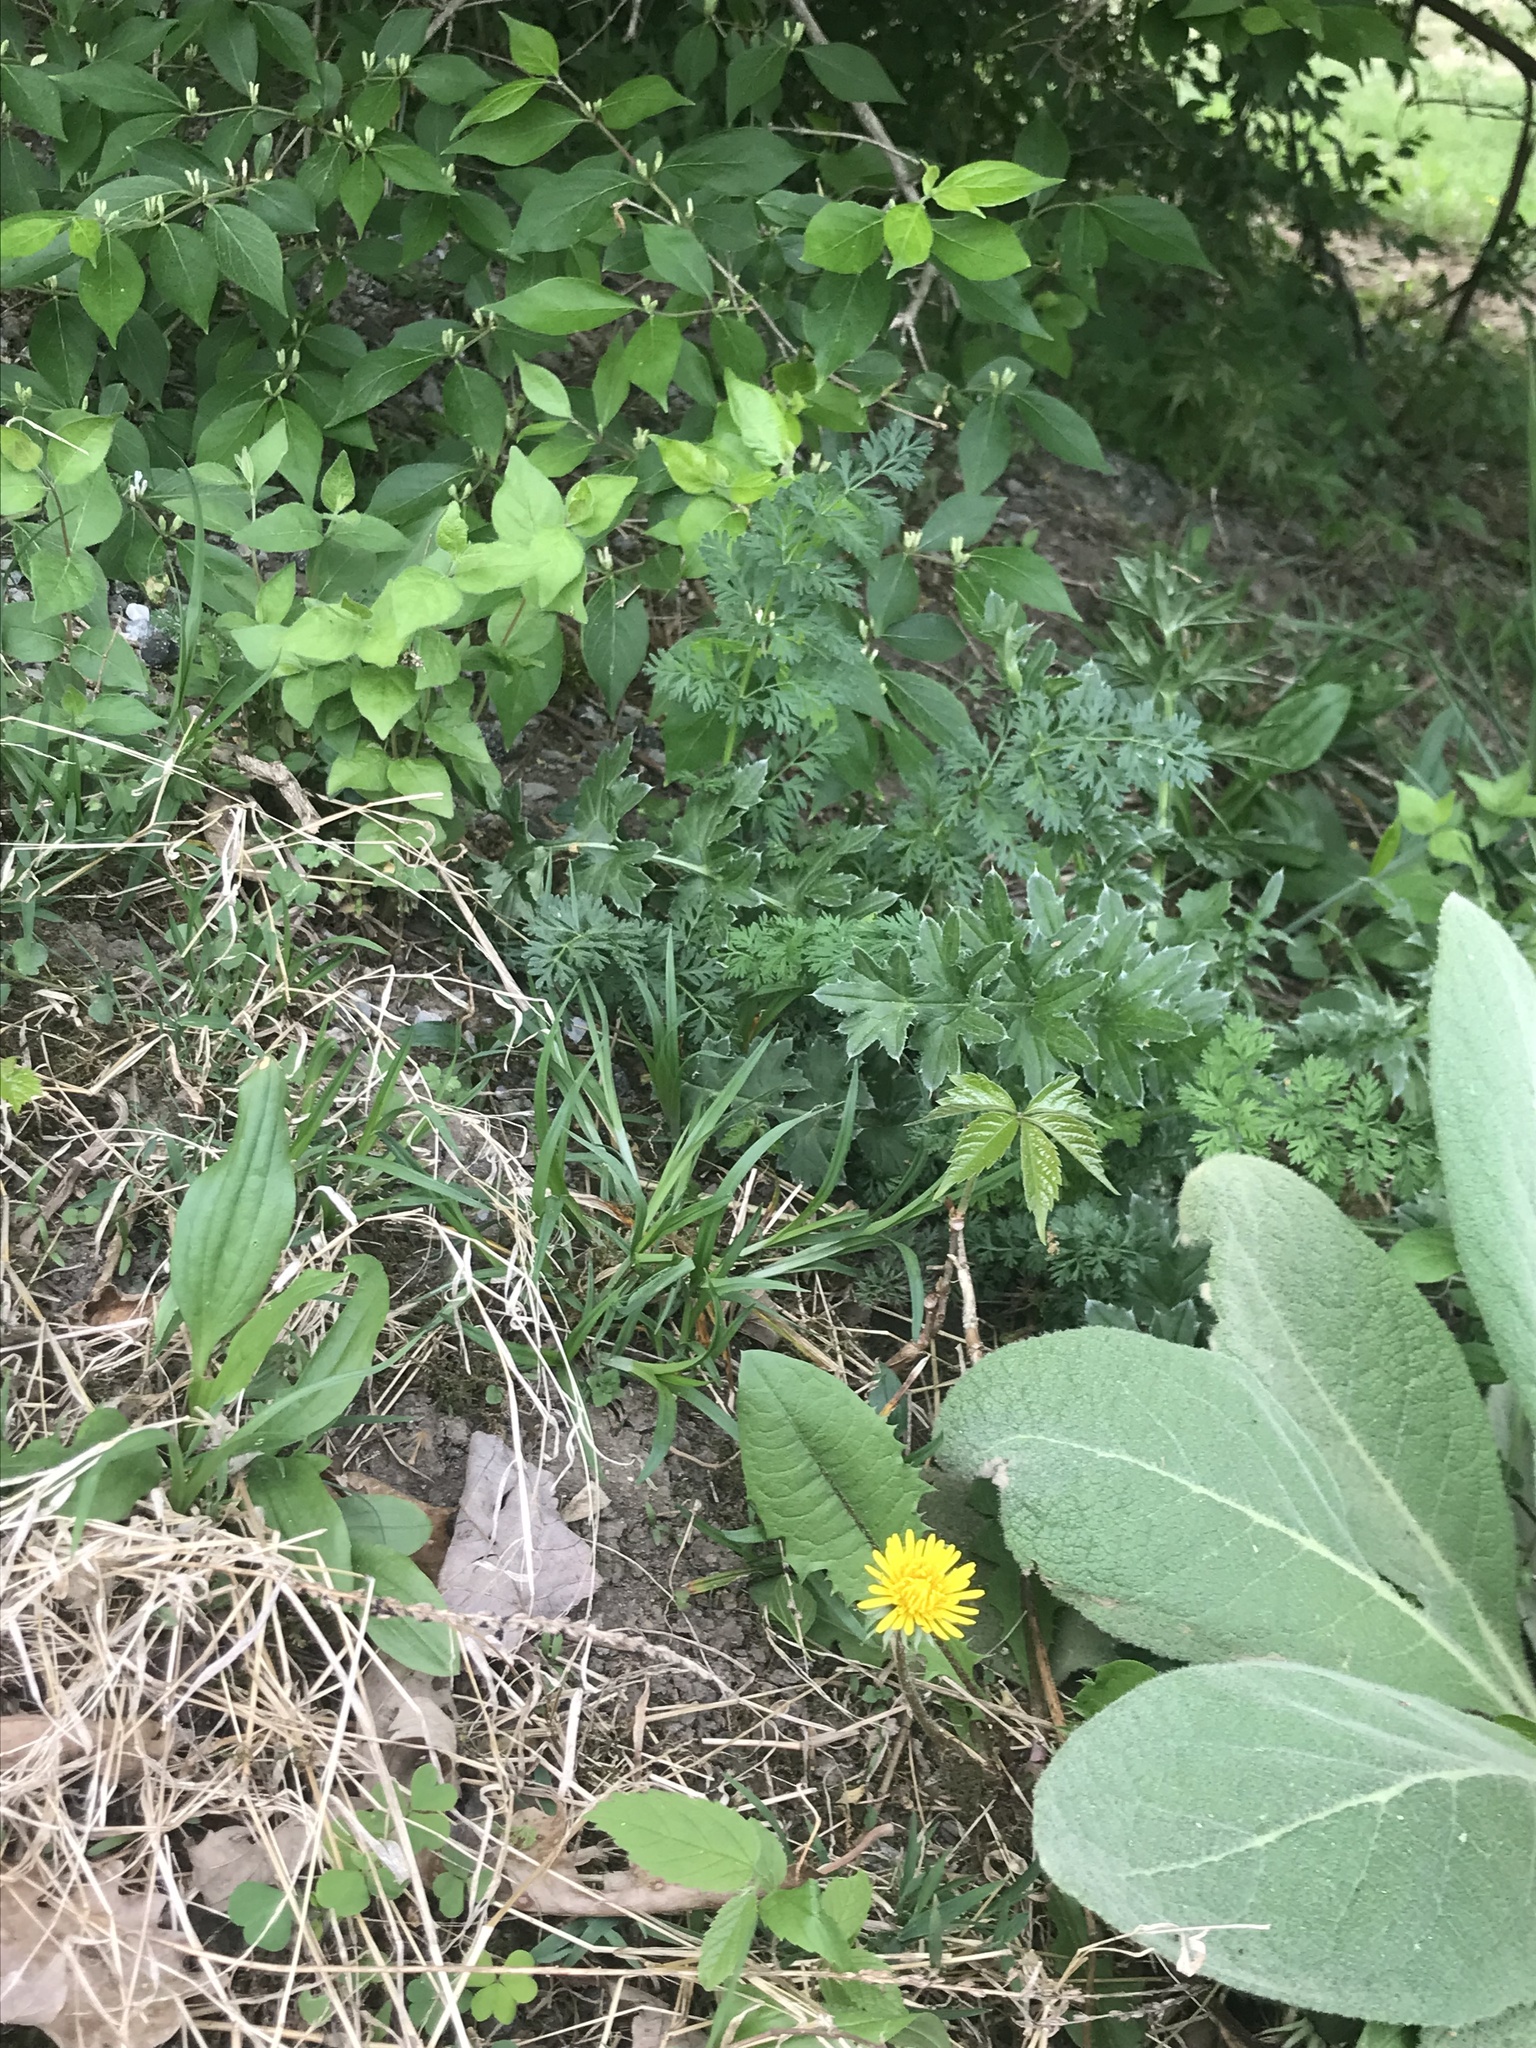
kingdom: Plantae
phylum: Tracheophyta
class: Magnoliopsida
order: Vitales
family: Vitaceae
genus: Parthenocissus
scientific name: Parthenocissus quinquefolia
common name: Virginia-creeper
